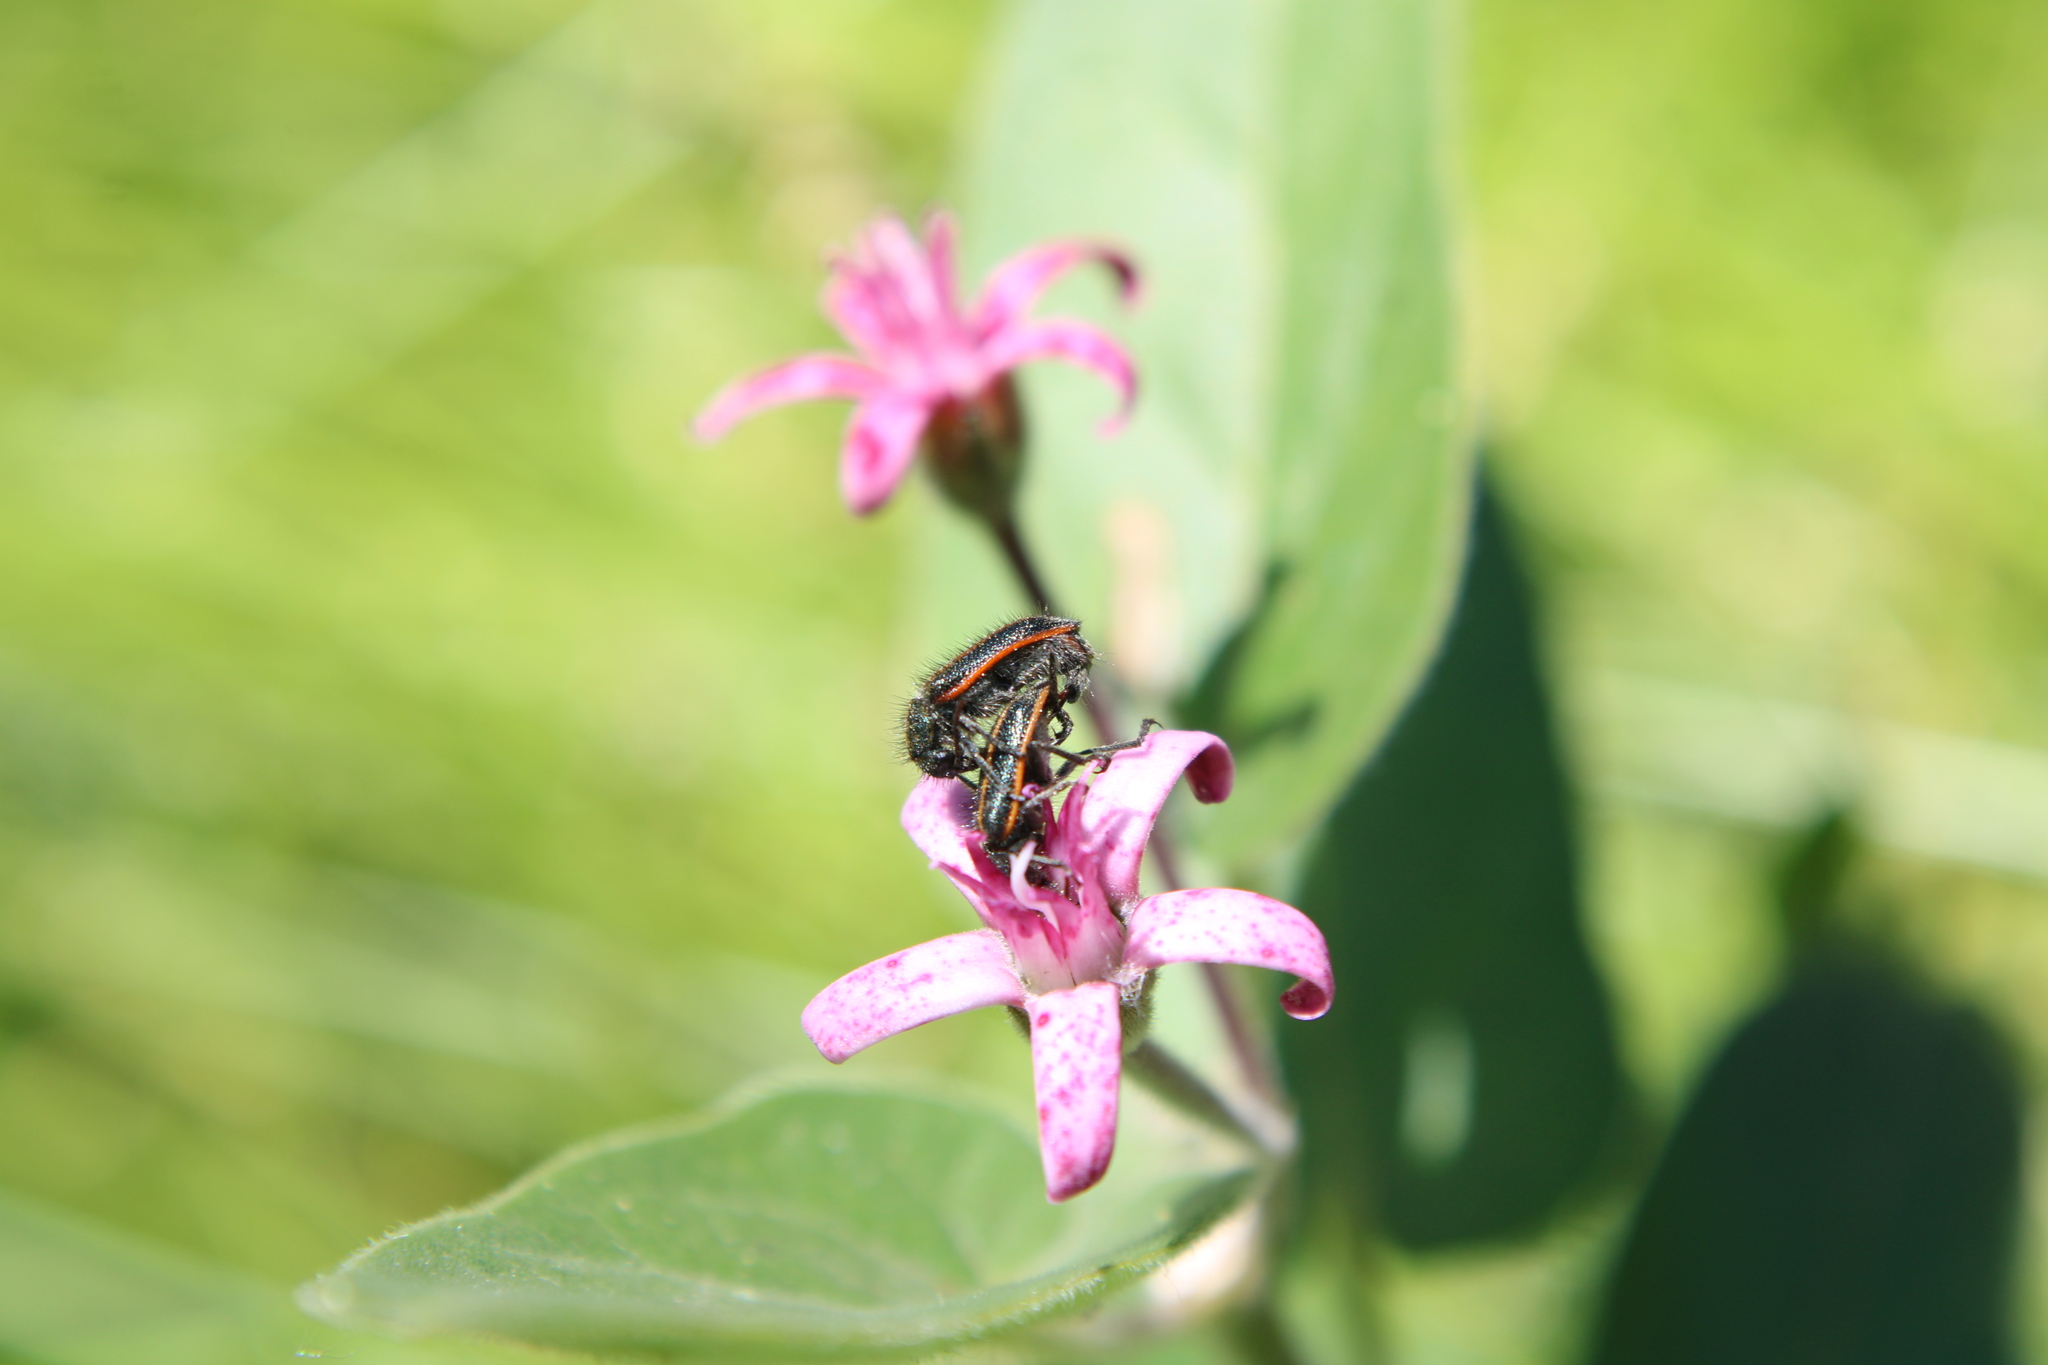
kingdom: Animalia
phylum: Arthropoda
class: Insecta
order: Coleoptera
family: Melyridae
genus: Astylus
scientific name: Astylus
